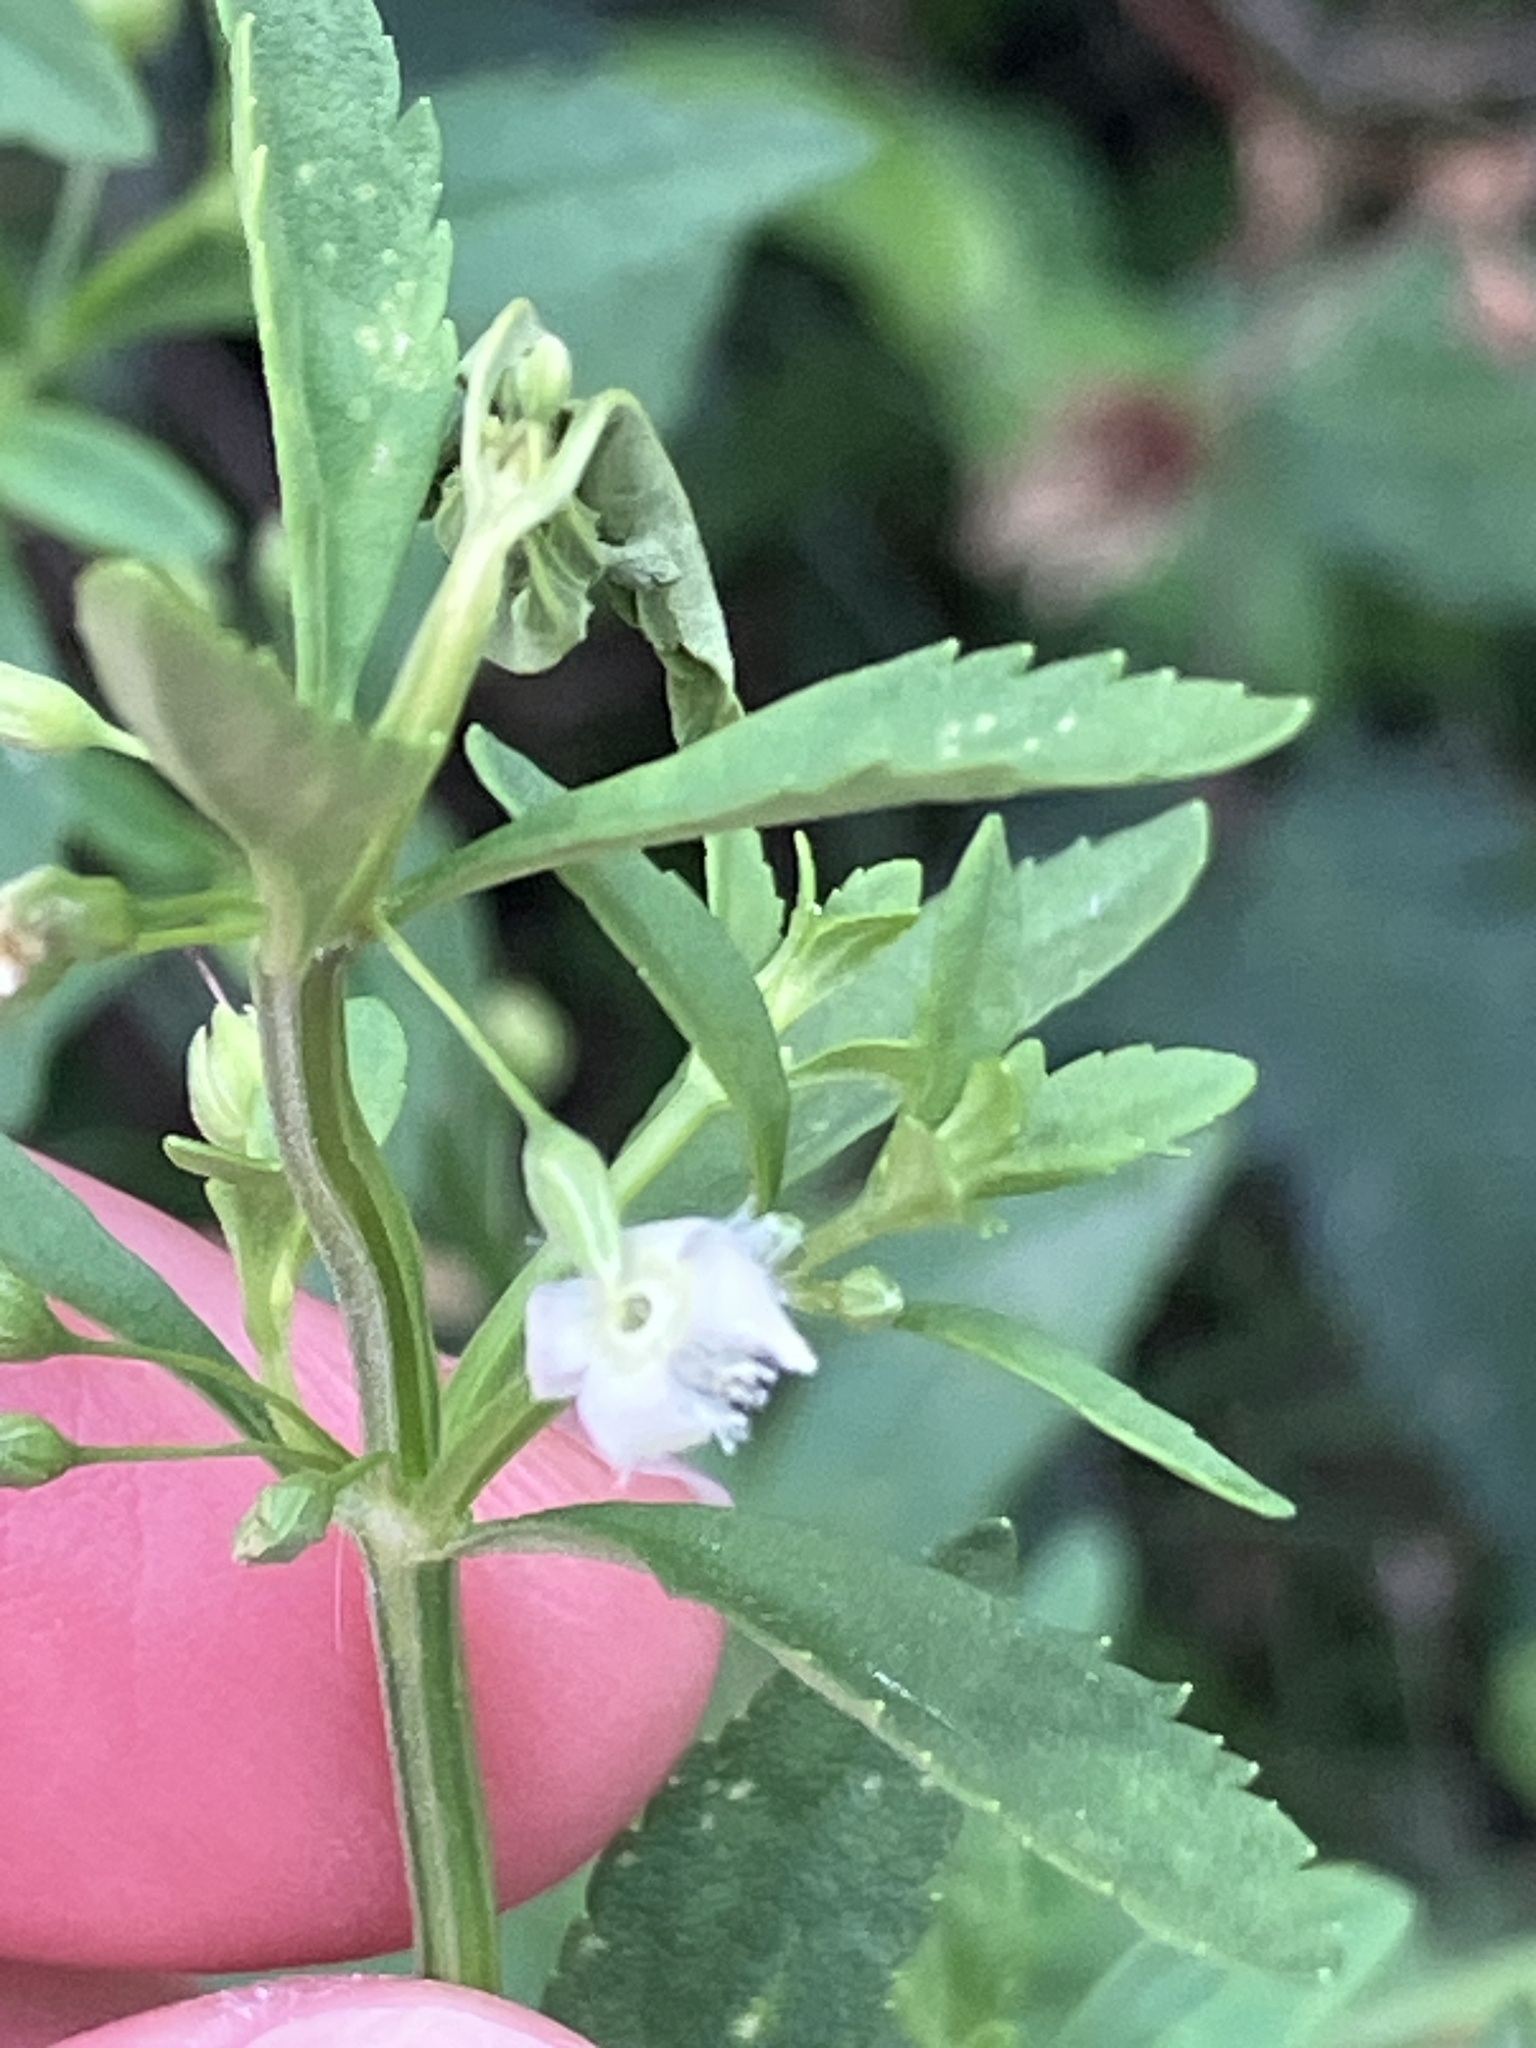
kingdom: Plantae
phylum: Tracheophyta
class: Magnoliopsida
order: Lamiales
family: Plantaginaceae
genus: Scoparia
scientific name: Scoparia dulcis
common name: Scoparia-weed
